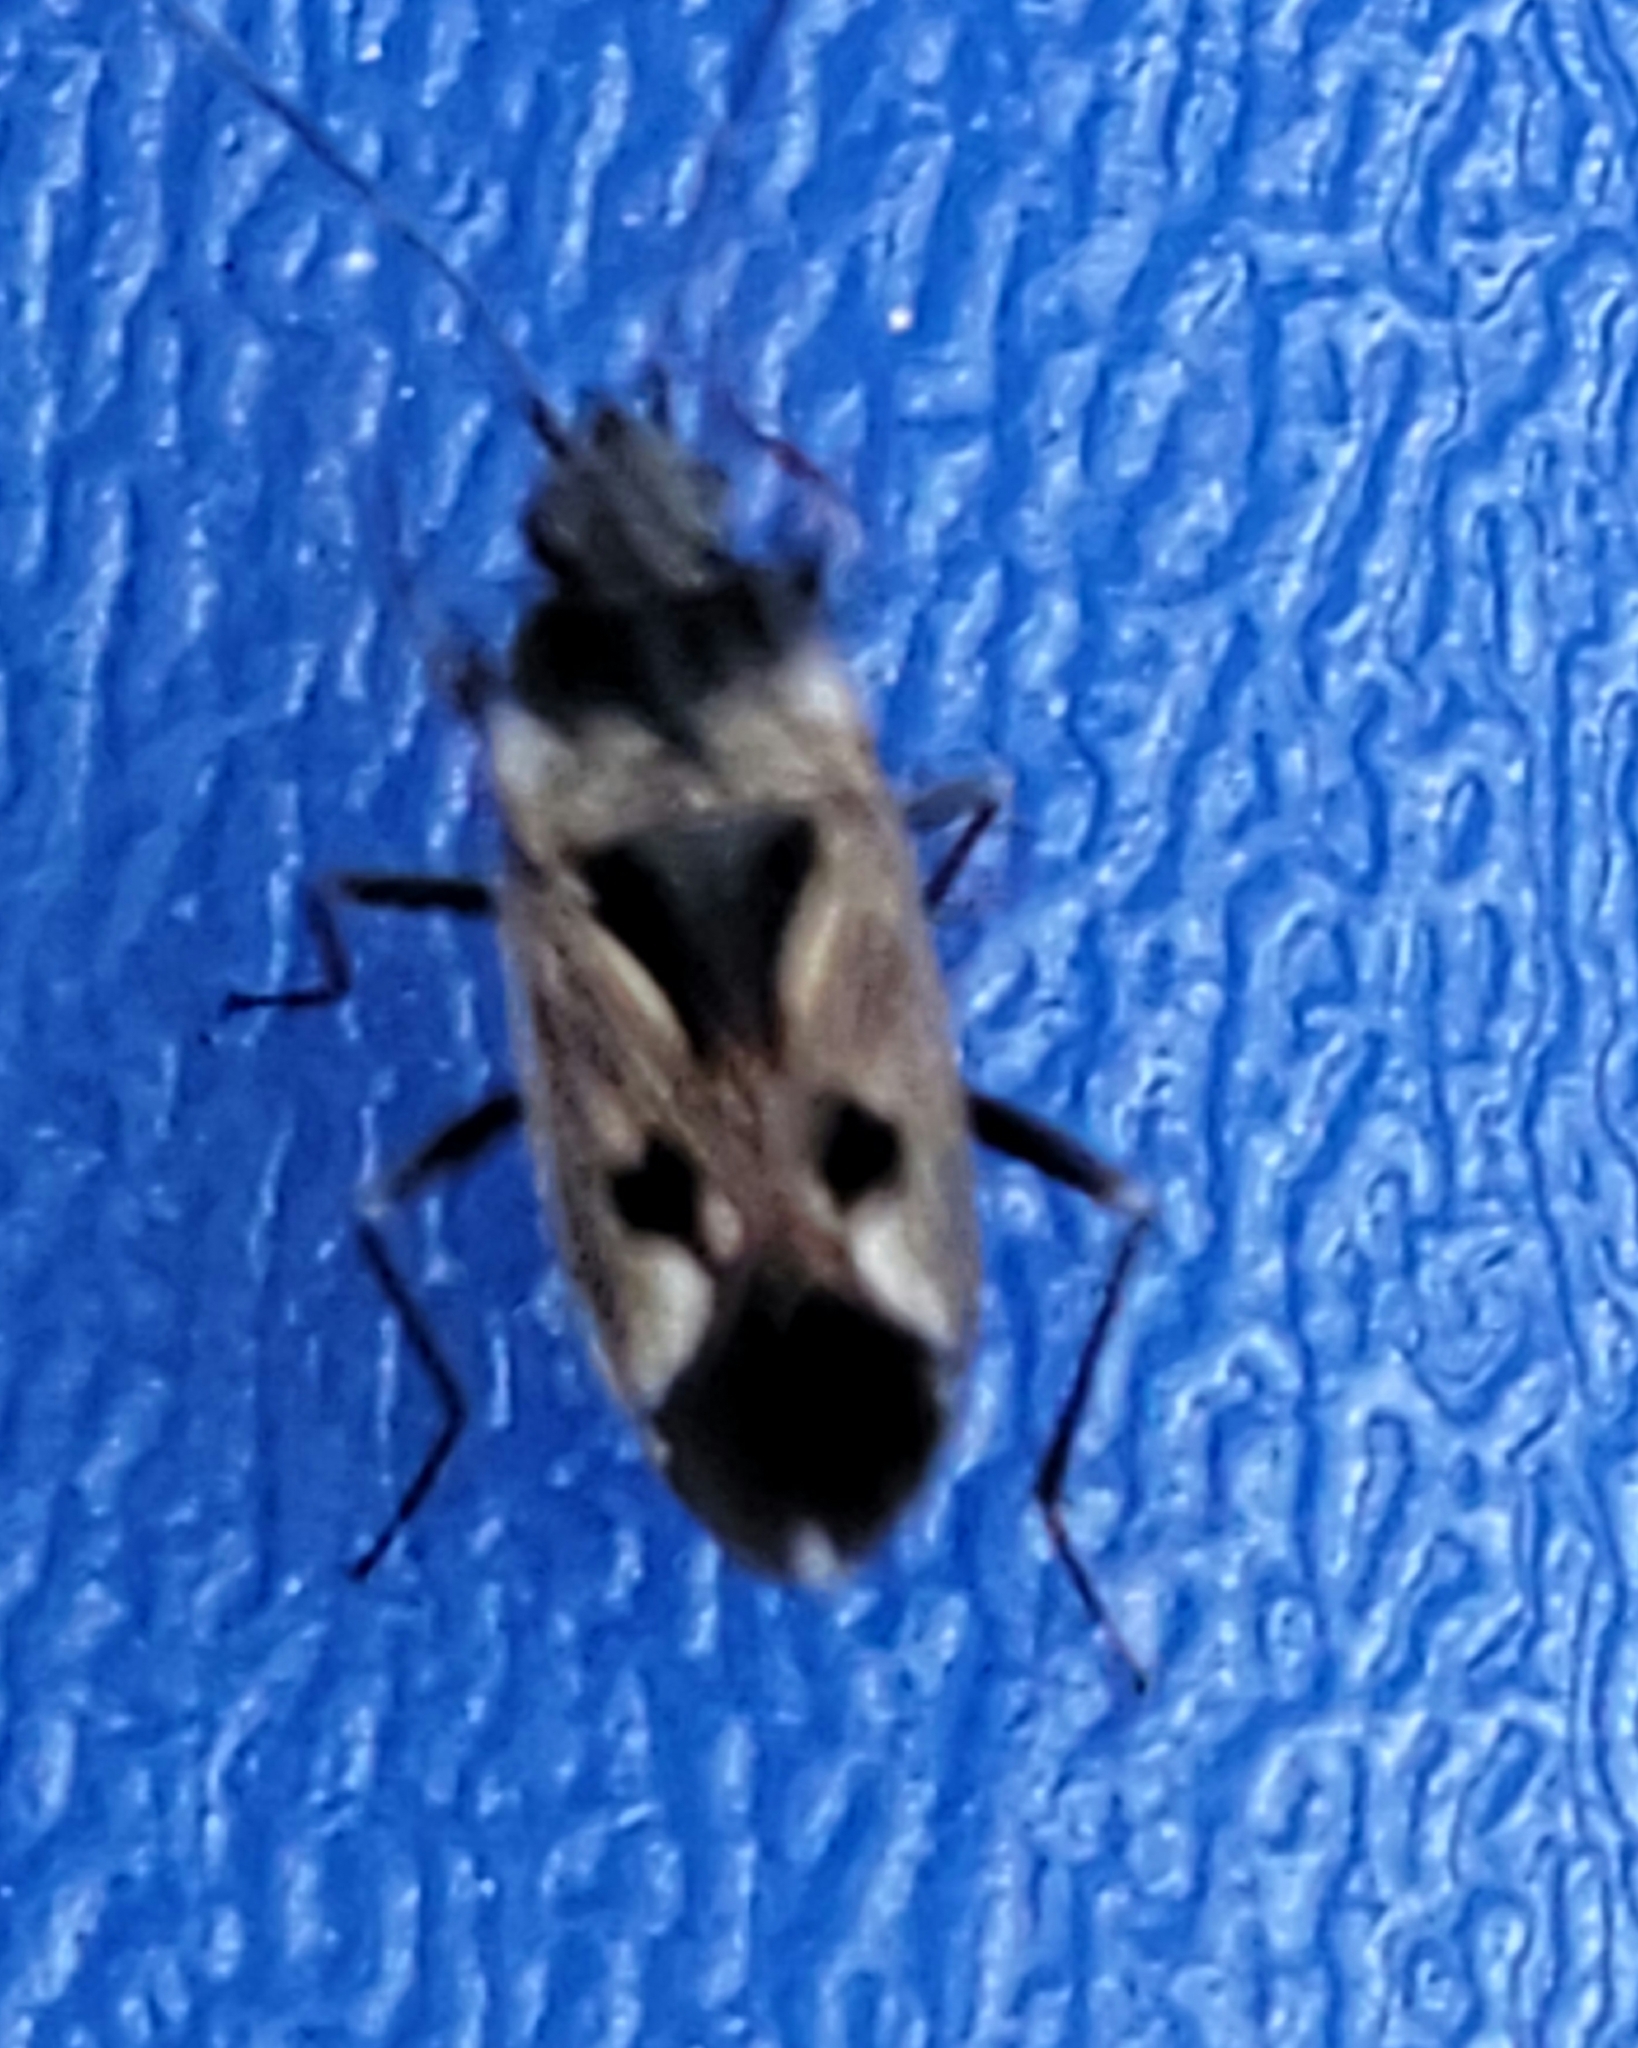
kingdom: Animalia
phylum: Arthropoda
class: Insecta
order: Hemiptera
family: Rhyparochromidae
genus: Rhyparochromus
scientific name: Rhyparochromus vulgaris
